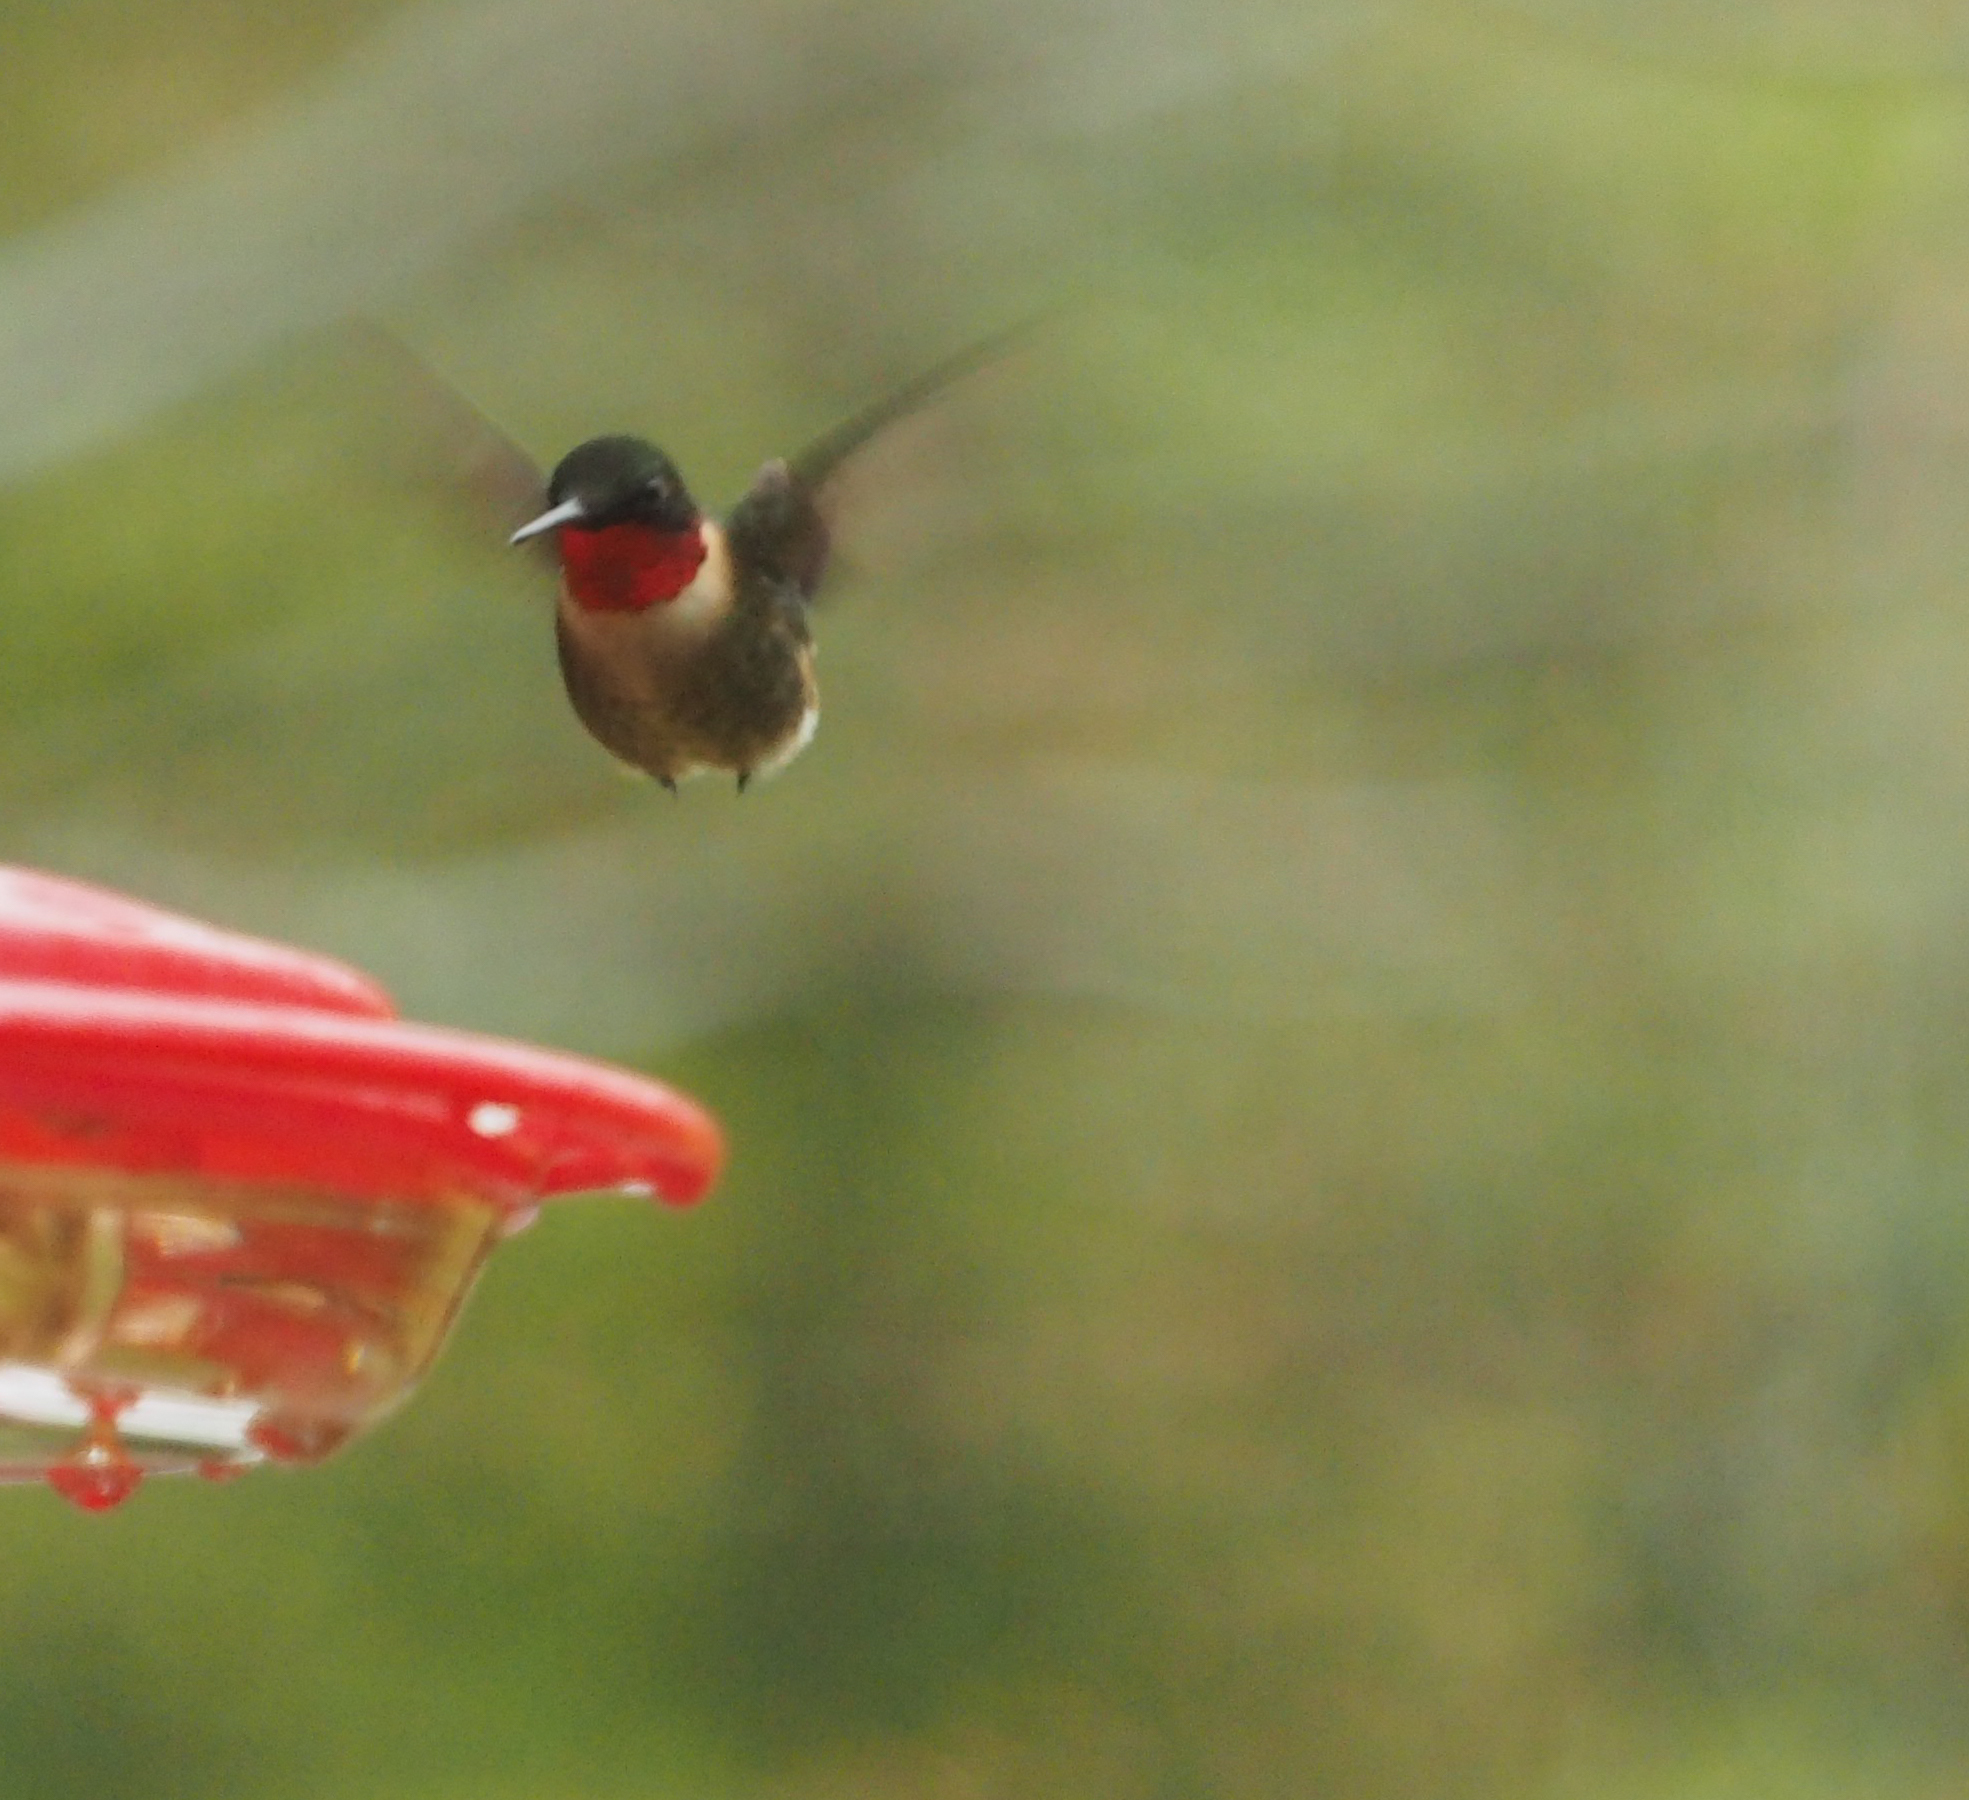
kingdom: Animalia
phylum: Chordata
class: Aves
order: Apodiformes
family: Trochilidae
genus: Archilochus
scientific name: Archilochus colubris
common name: Ruby-throated hummingbird
